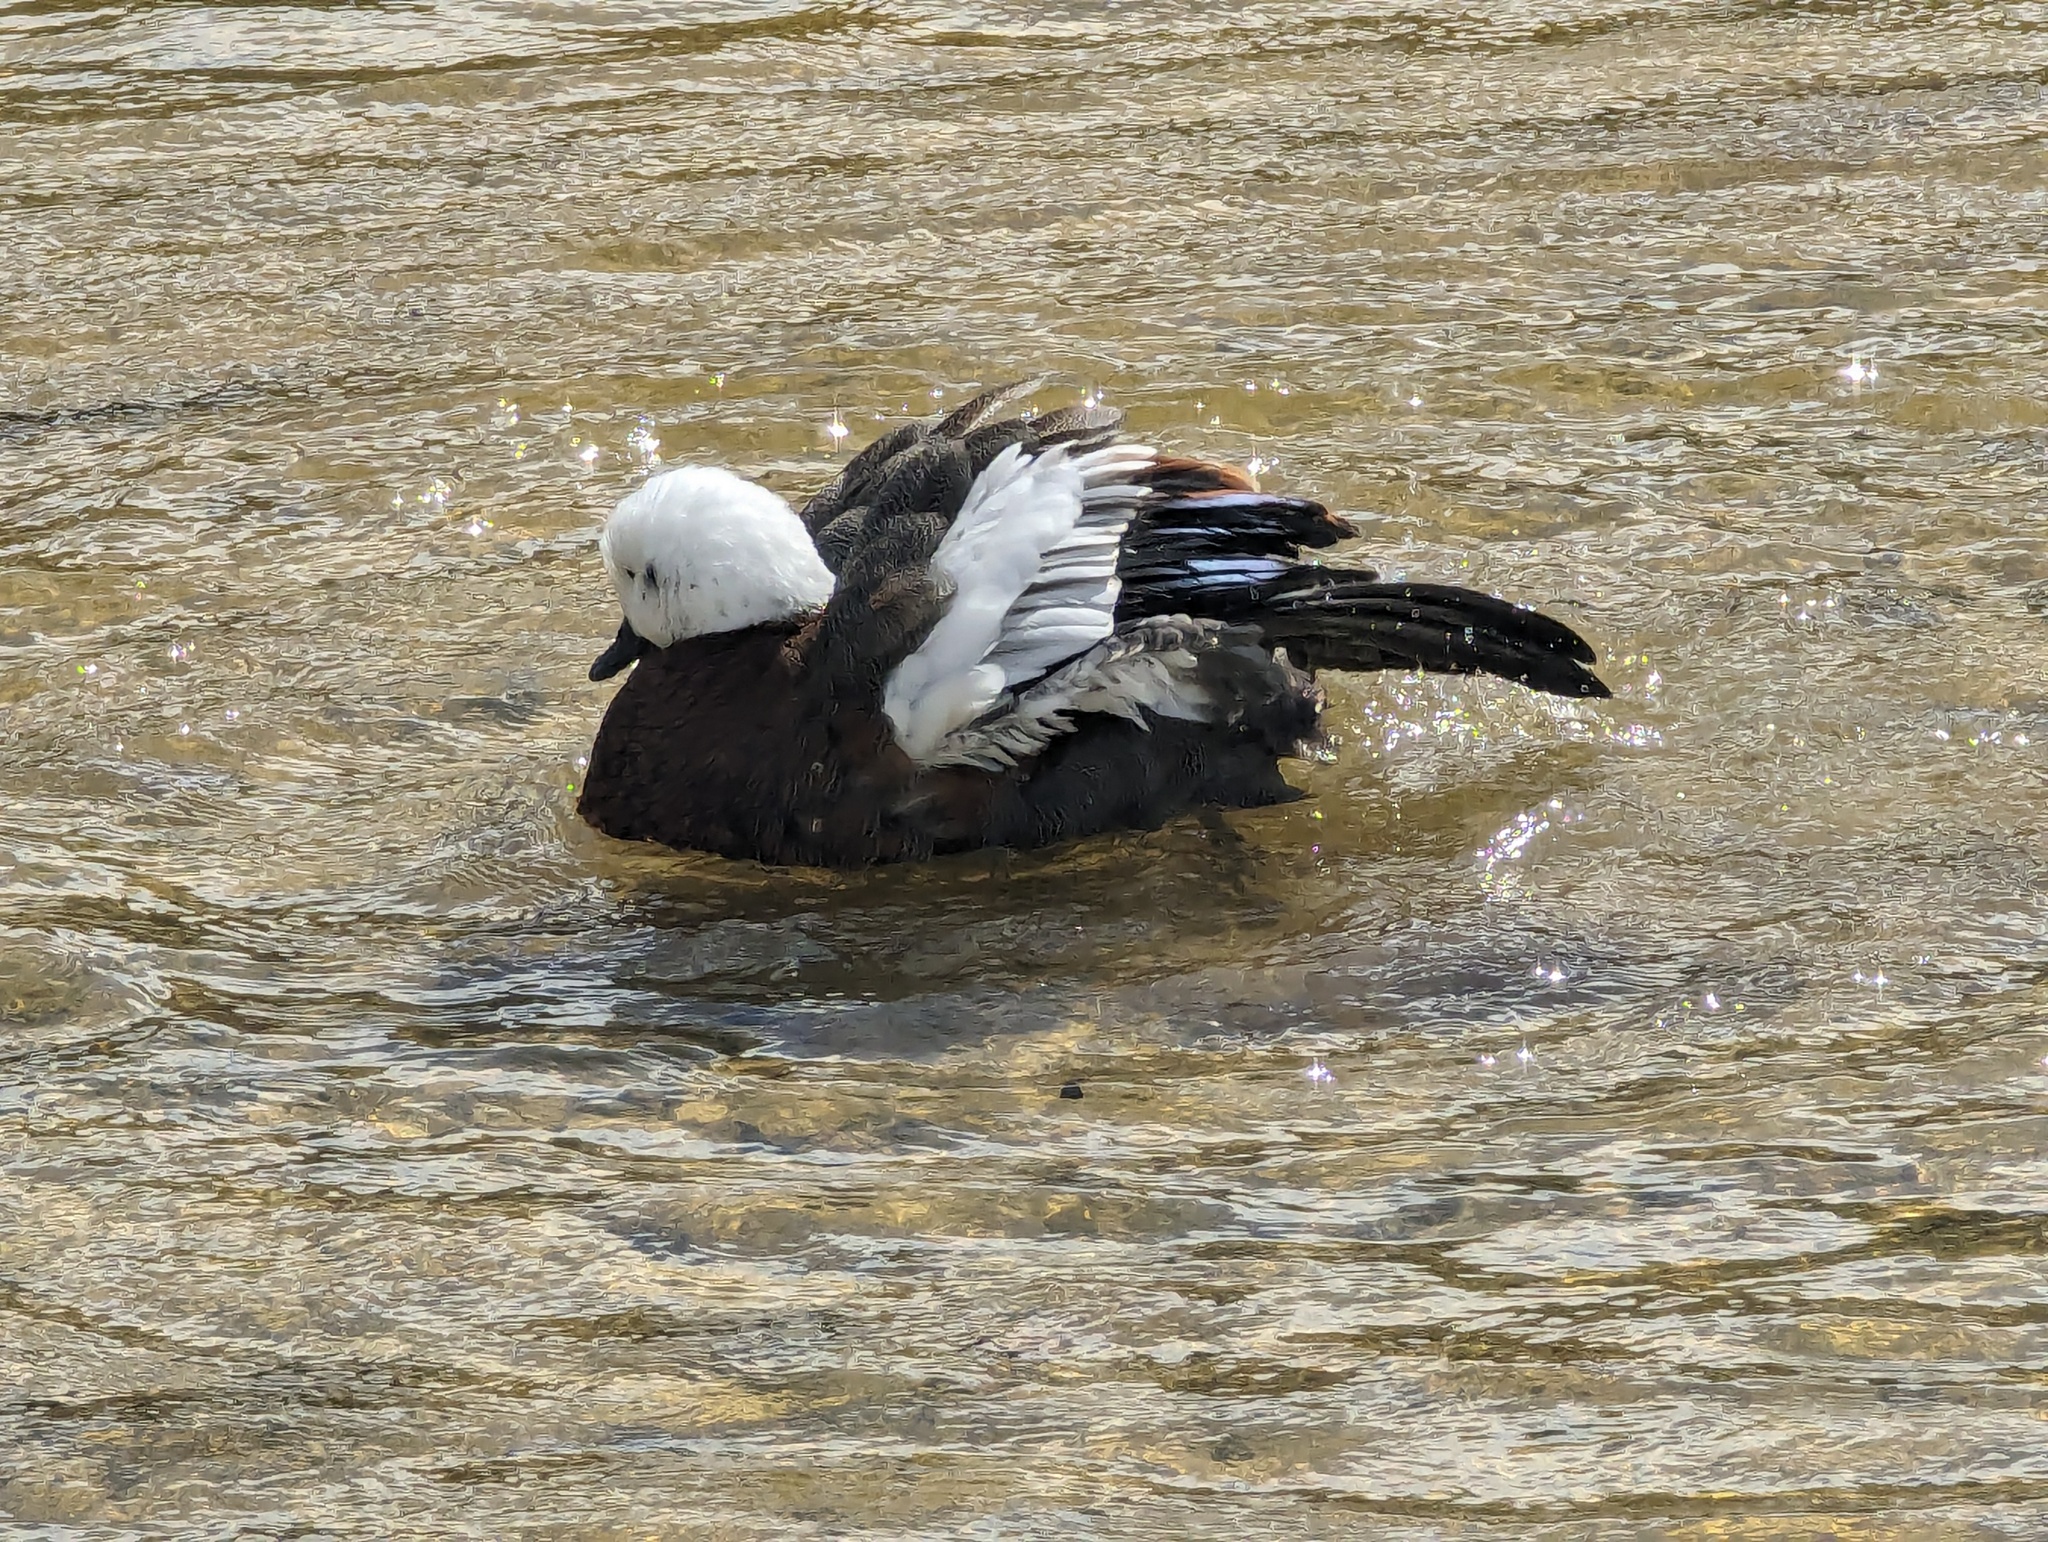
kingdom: Animalia
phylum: Chordata
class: Aves
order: Anseriformes
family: Anatidae
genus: Tadorna
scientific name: Tadorna variegata
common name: Paradise shelduck
